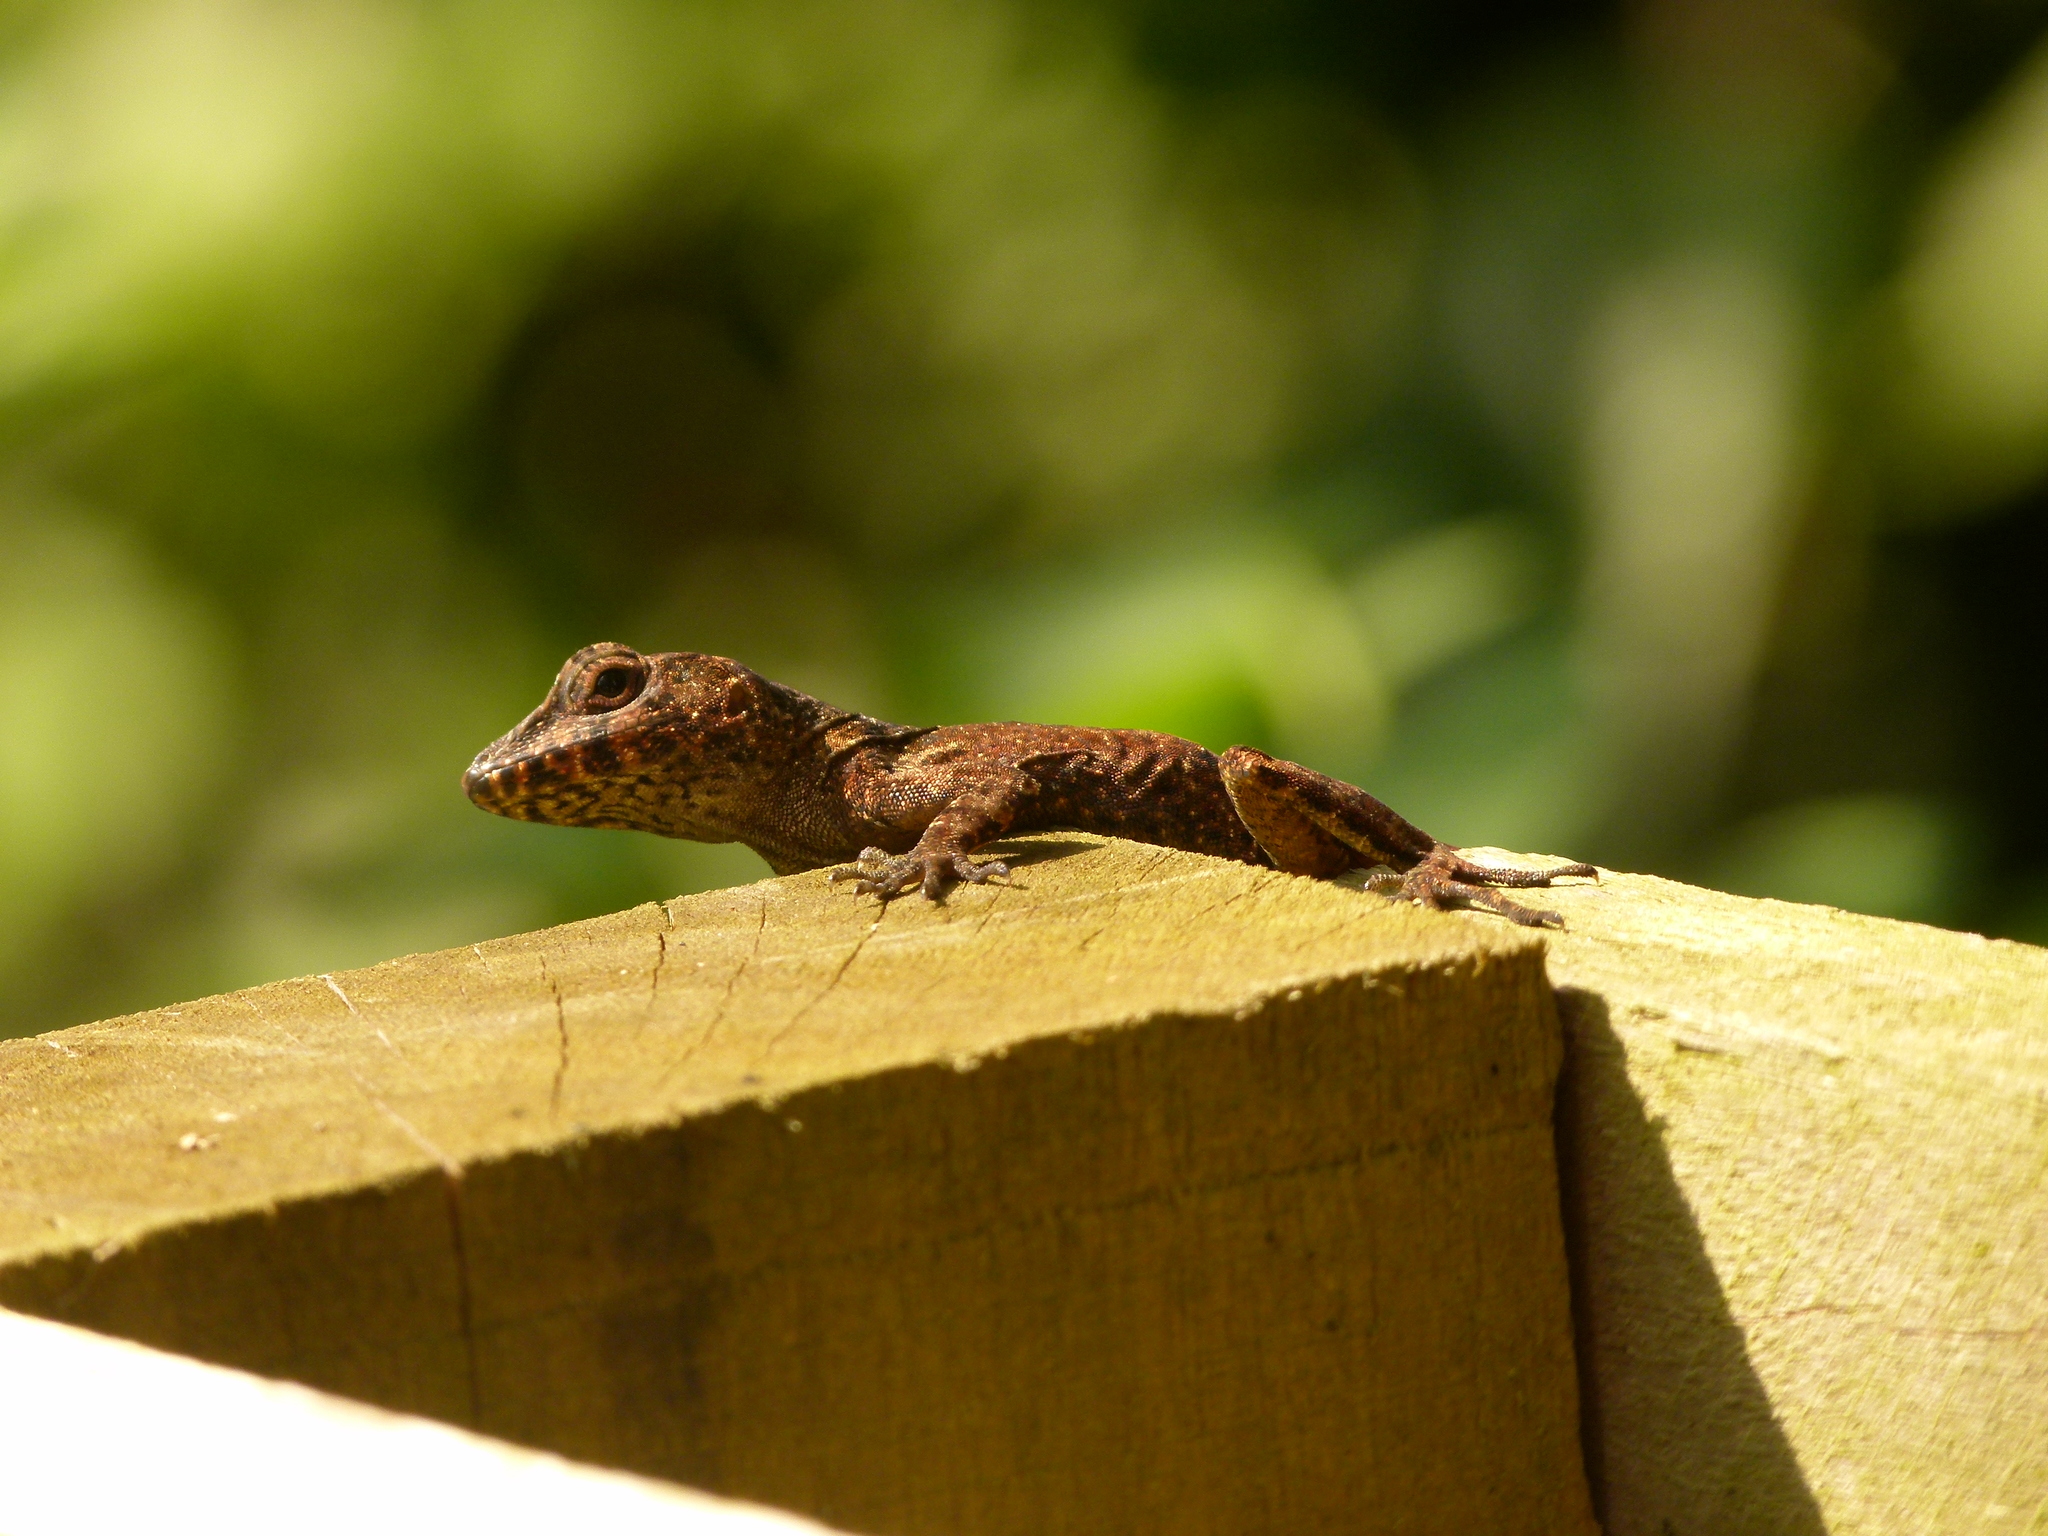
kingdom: Animalia
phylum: Chordata
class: Squamata
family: Dactyloidae
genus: Anolis
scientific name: Anolis cristatellus
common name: Crested anole
